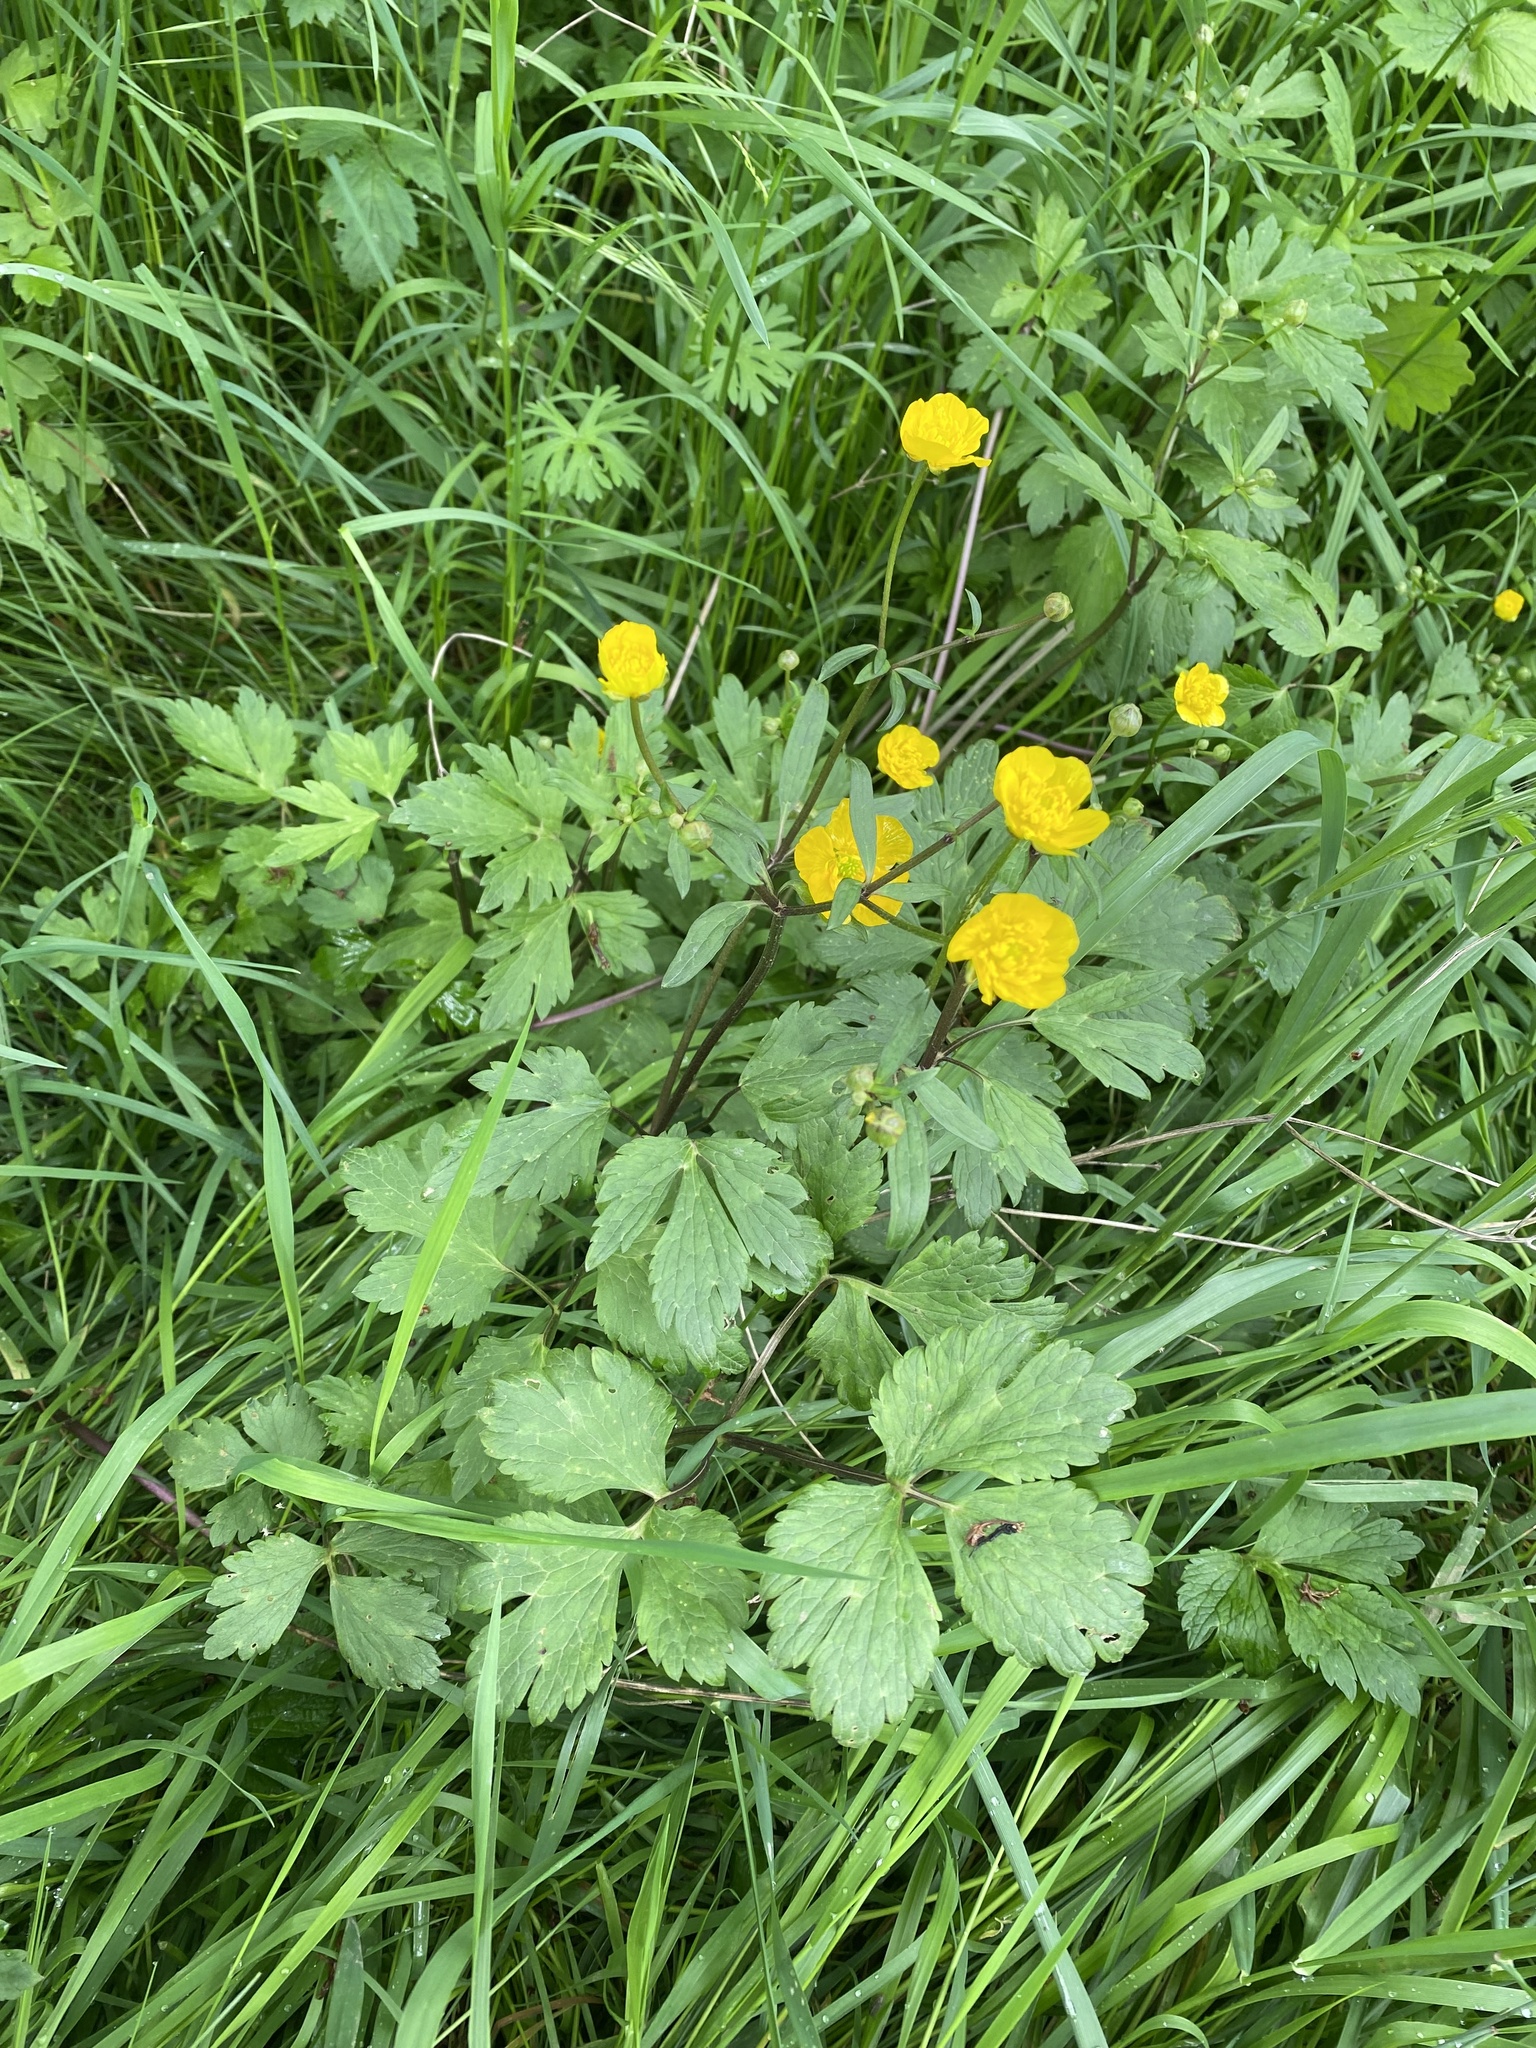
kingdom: Plantae
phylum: Tracheophyta
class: Magnoliopsida
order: Ranunculales
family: Ranunculaceae
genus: Ranunculus
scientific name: Ranunculus repens
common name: Creeping buttercup
